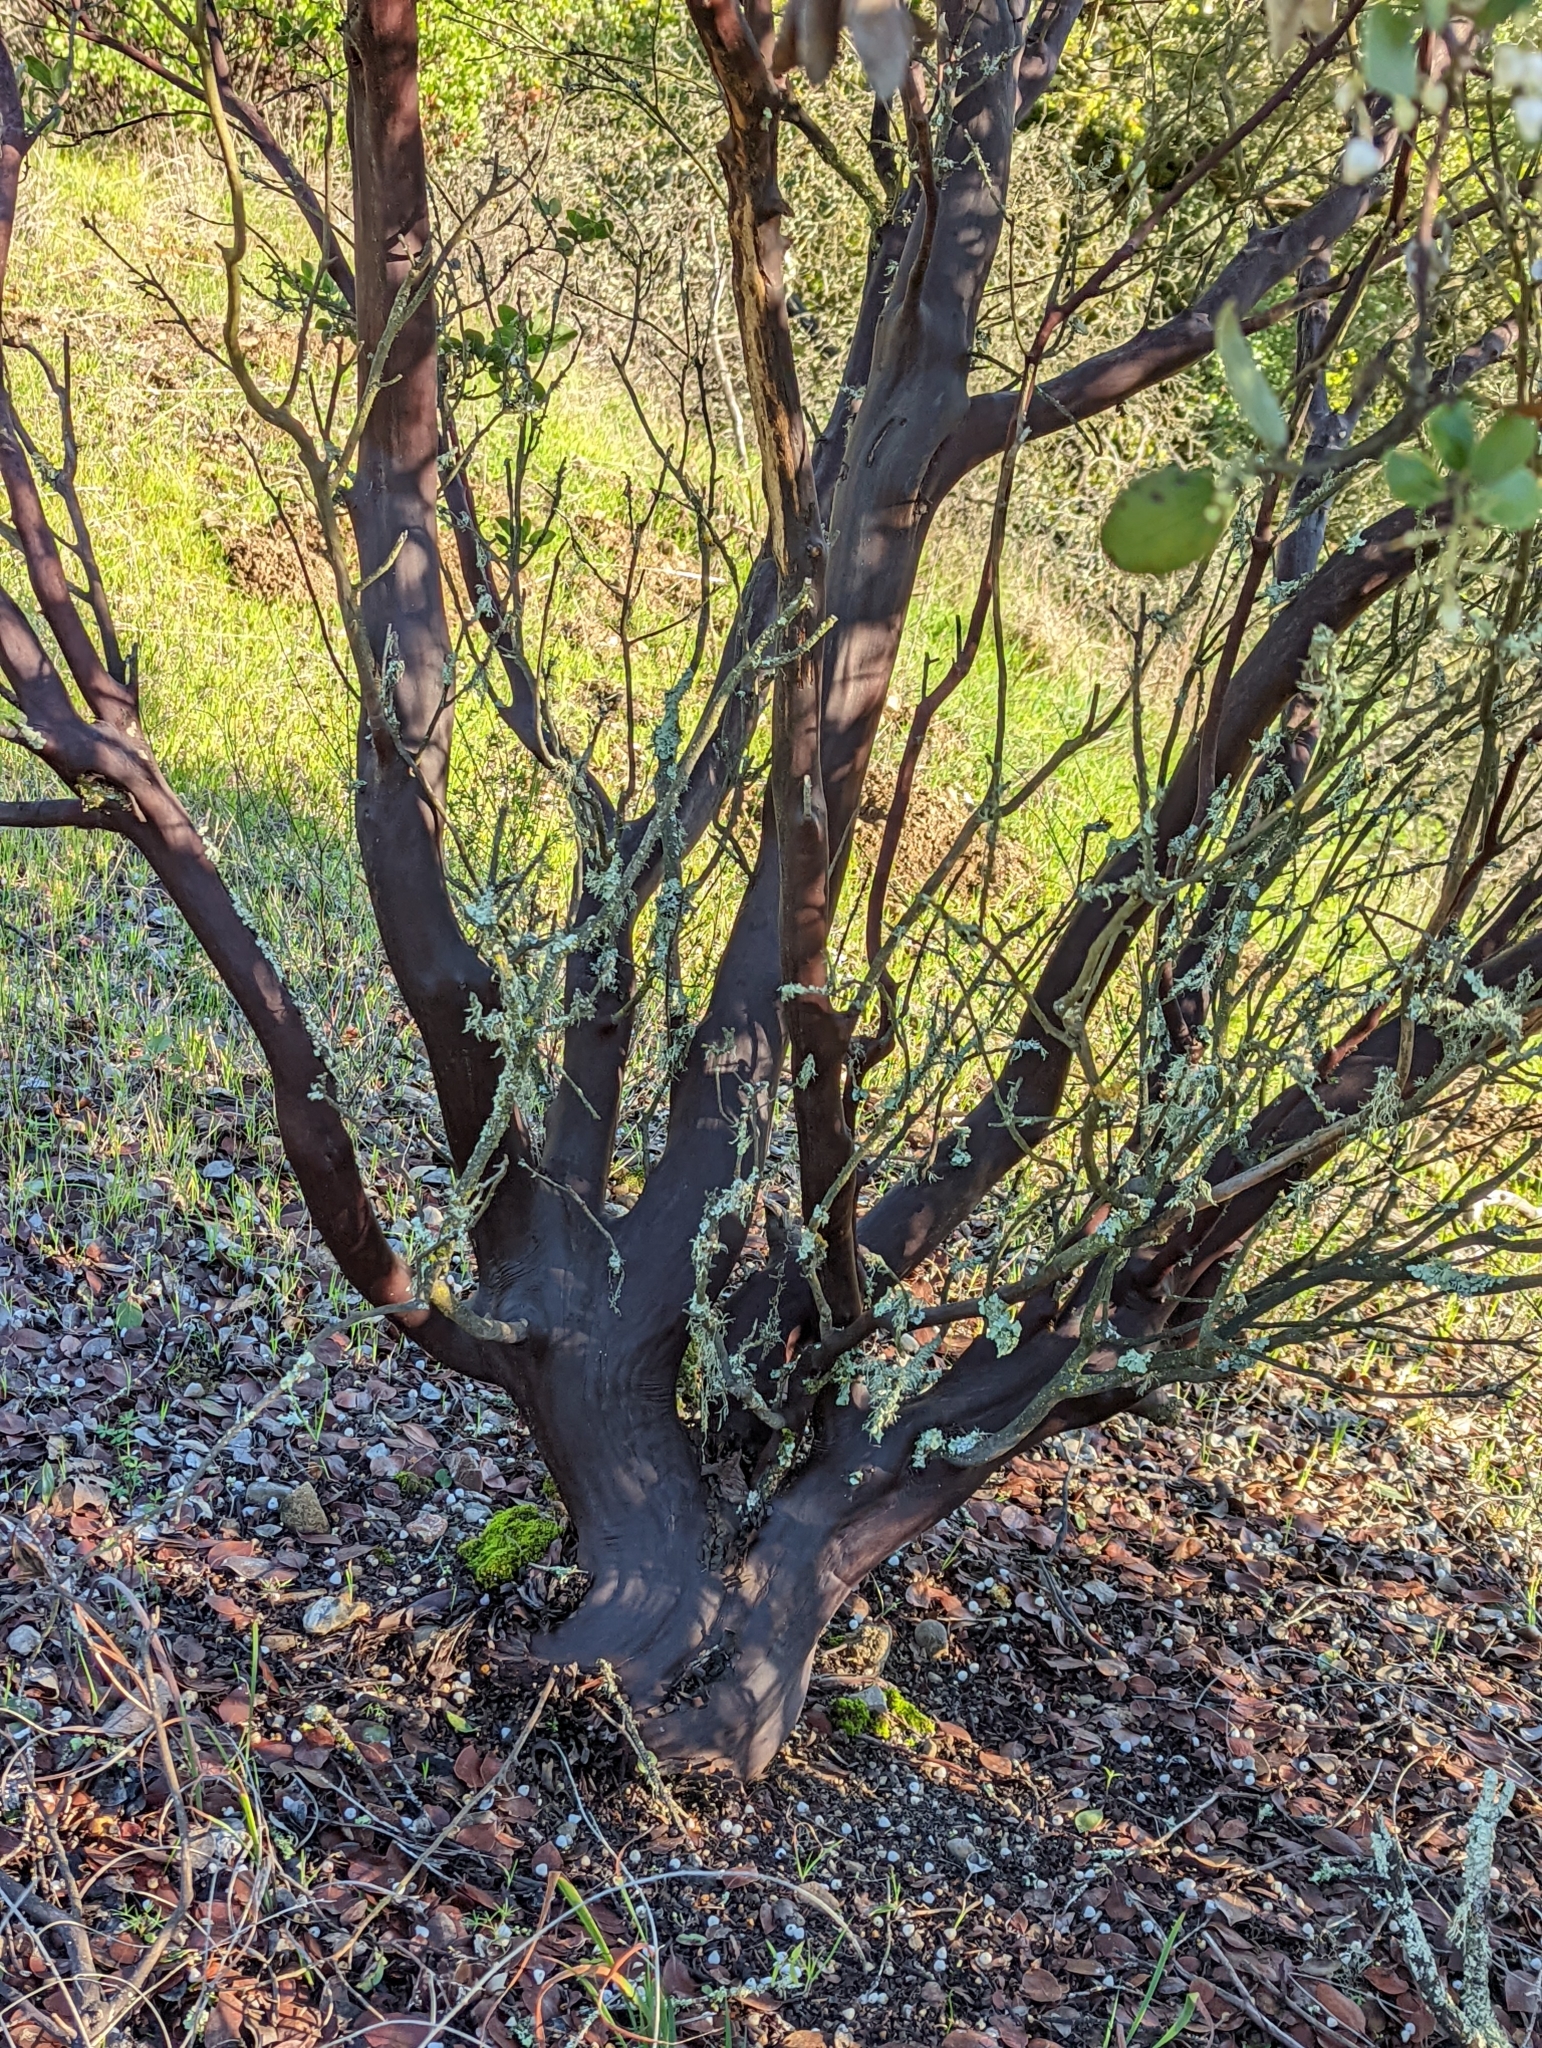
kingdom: Plantae
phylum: Tracheophyta
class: Magnoliopsida
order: Ericales
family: Ericaceae
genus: Arctostaphylos
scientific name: Arctostaphylos manzanita
